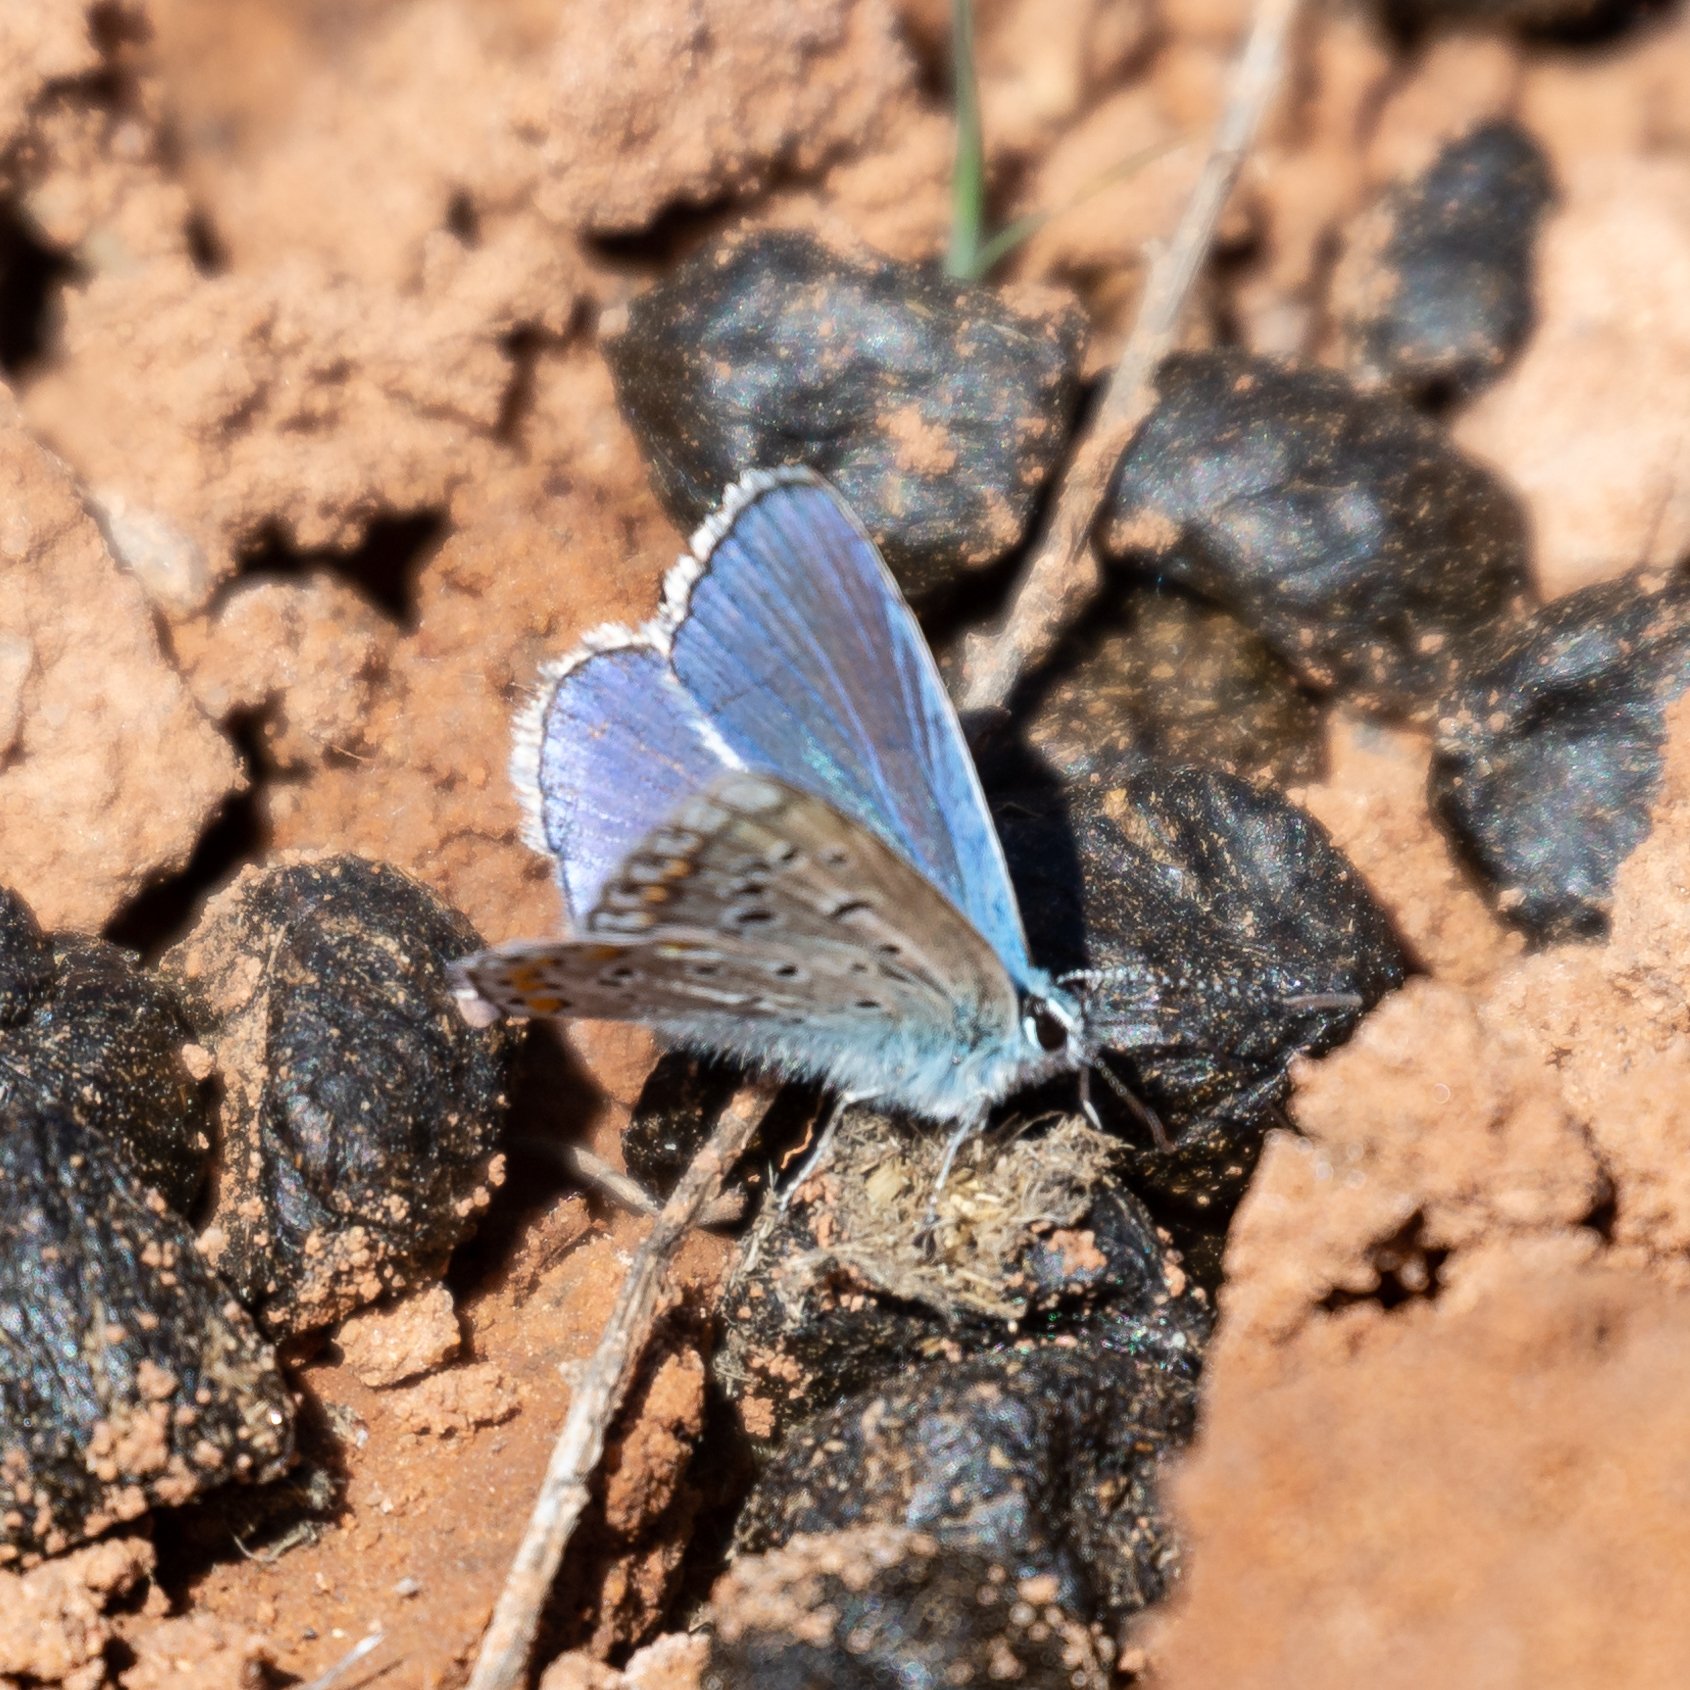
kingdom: Animalia
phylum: Arthropoda
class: Insecta
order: Lepidoptera
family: Lycaenidae
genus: Polyommatus
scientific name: Polyommatus icarus
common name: Common blue
